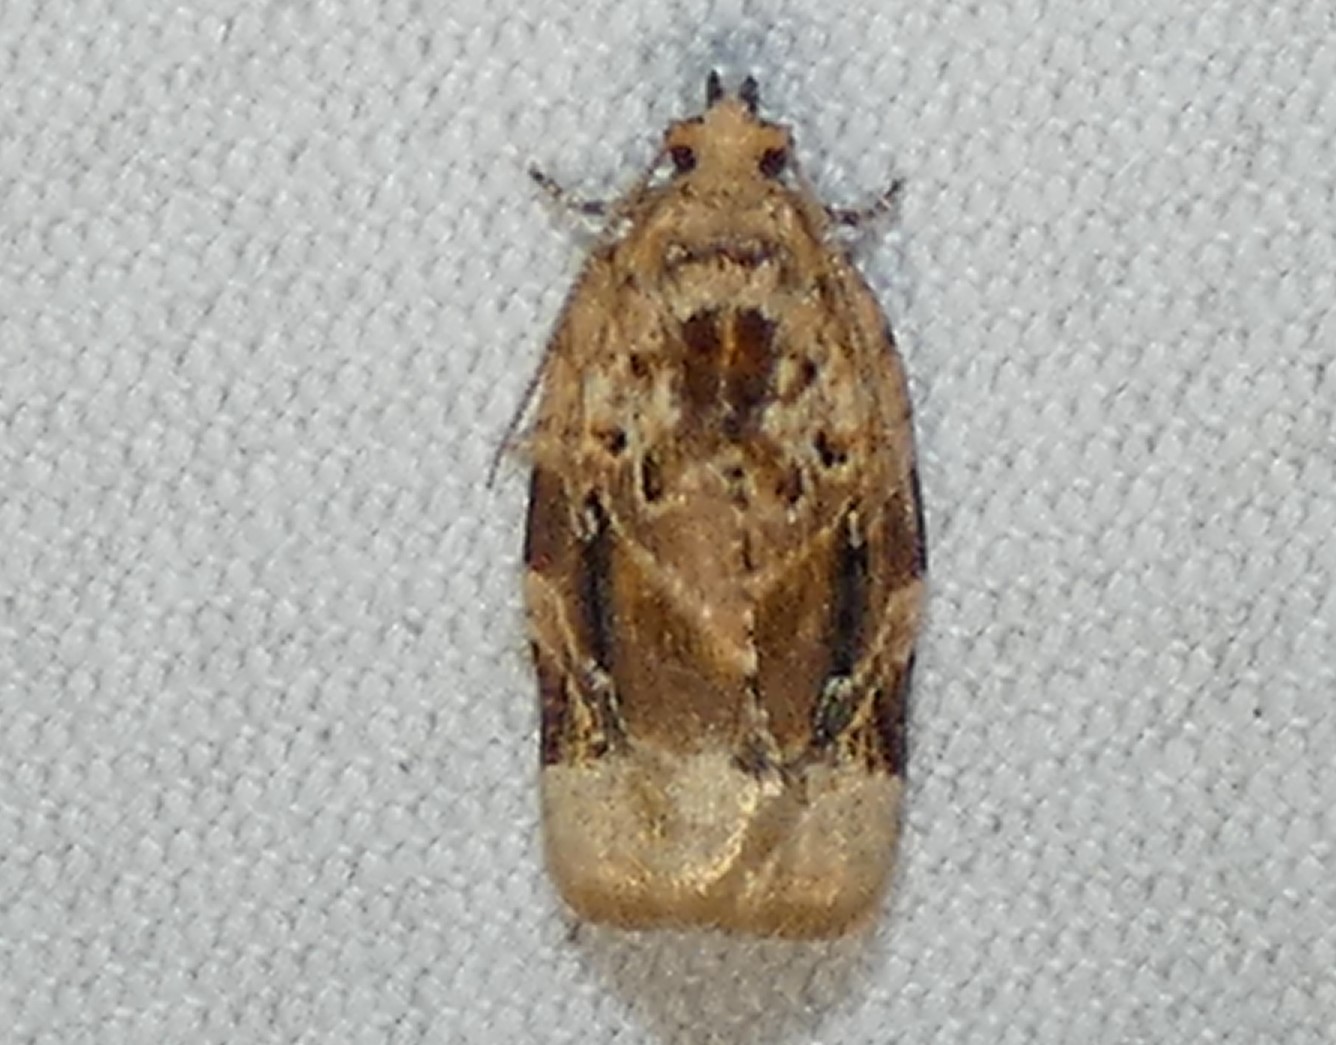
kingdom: Animalia
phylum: Arthropoda
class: Insecta
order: Lepidoptera
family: Tortricidae
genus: Argyrotaenia
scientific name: Argyrotaenia velutinana
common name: Red-banded leafroller moth
